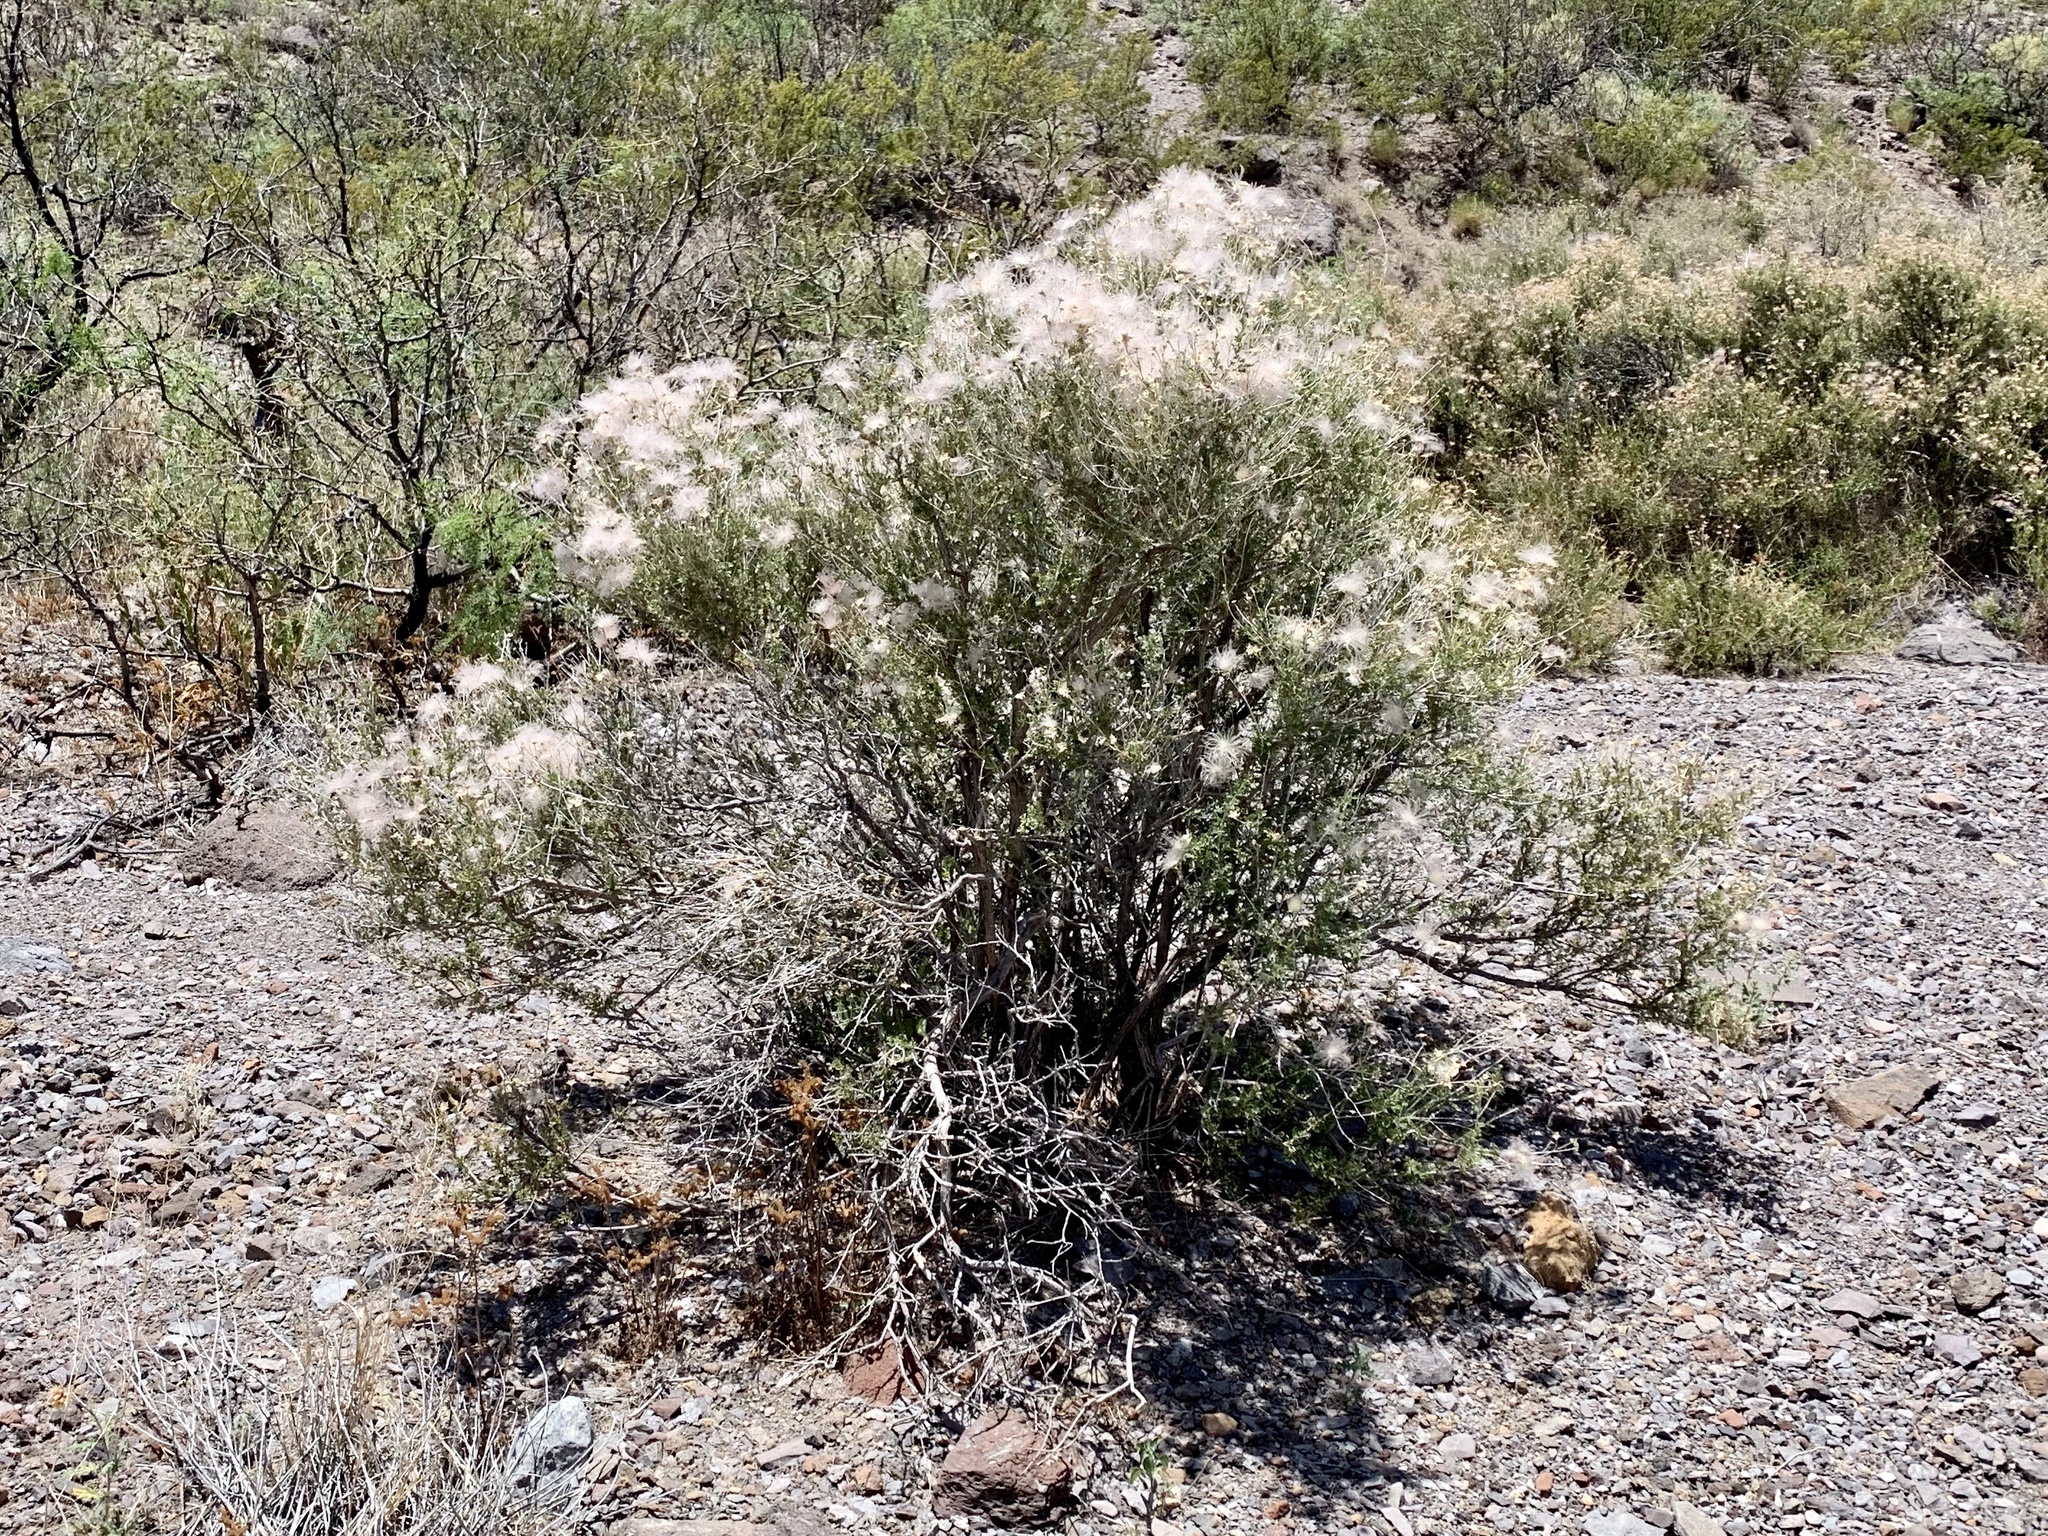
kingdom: Plantae
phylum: Tracheophyta
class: Magnoliopsida
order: Rosales
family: Rosaceae
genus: Fallugia
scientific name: Fallugia paradoxa
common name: Apache-plume
